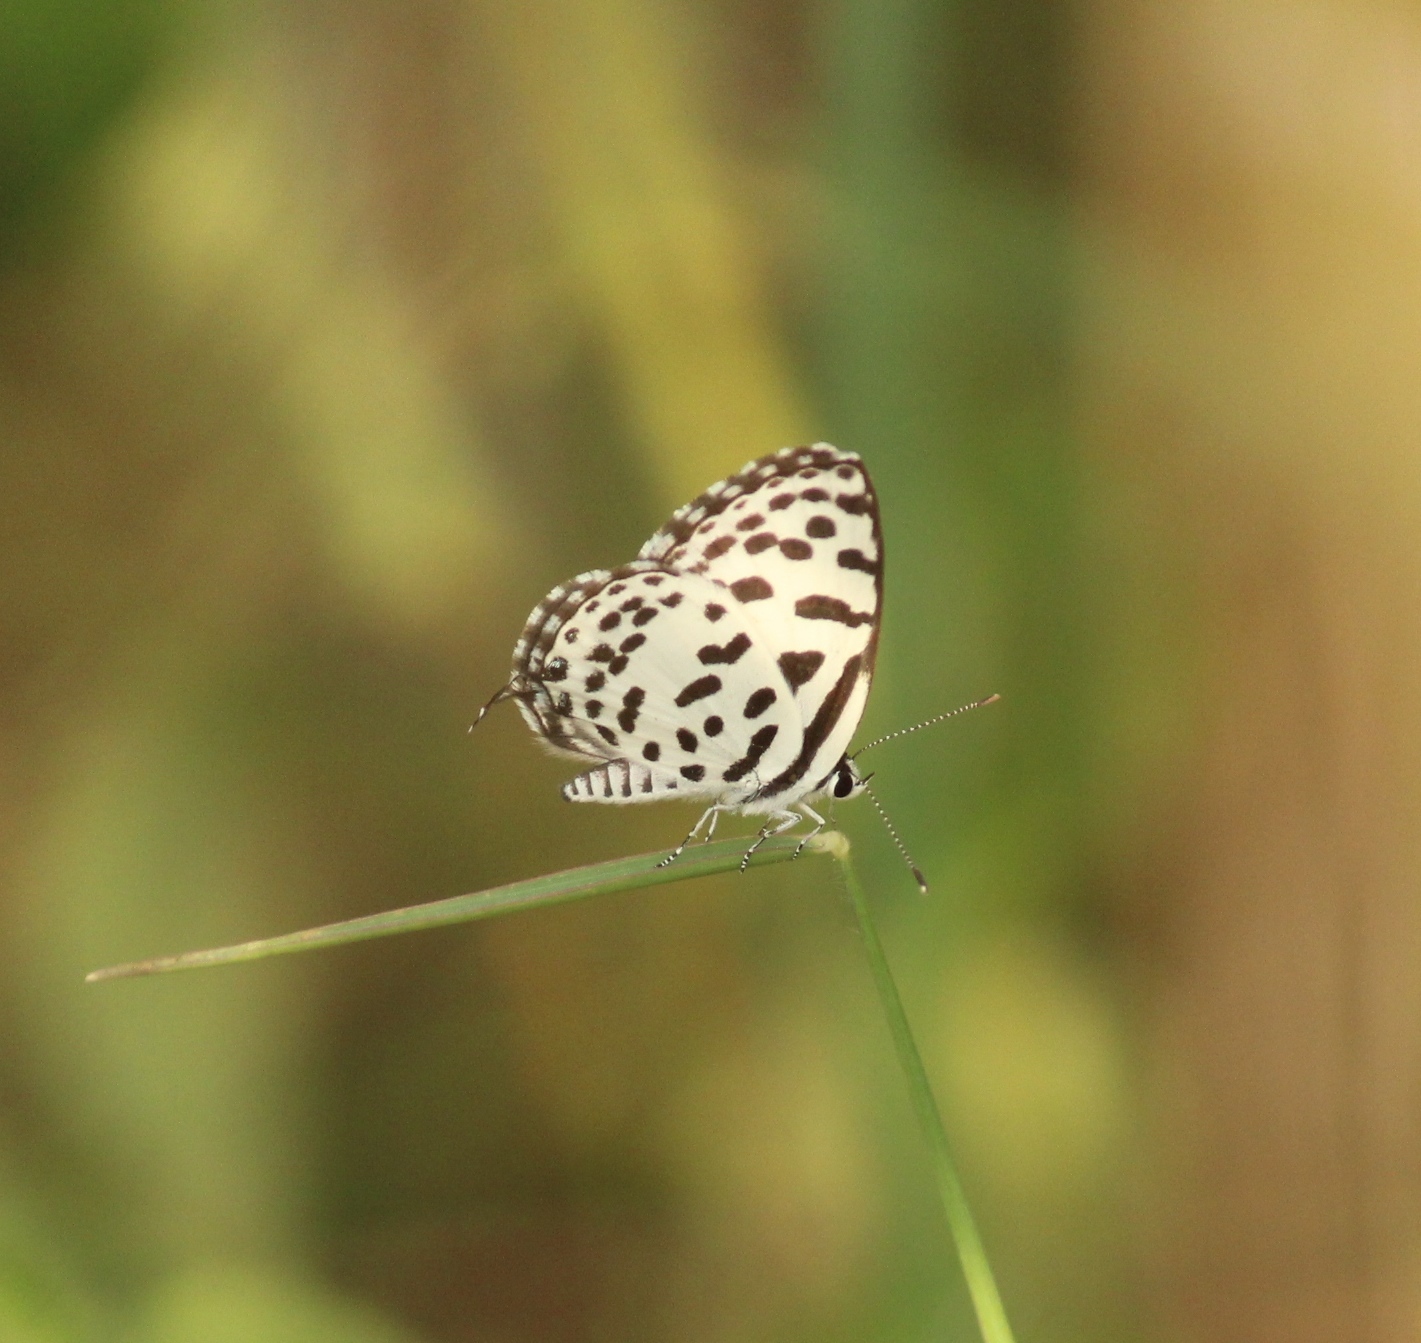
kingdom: Animalia
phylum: Arthropoda
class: Insecta
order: Lepidoptera
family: Lycaenidae
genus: Castalius
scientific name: Castalius rosimon
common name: Common pierrot
